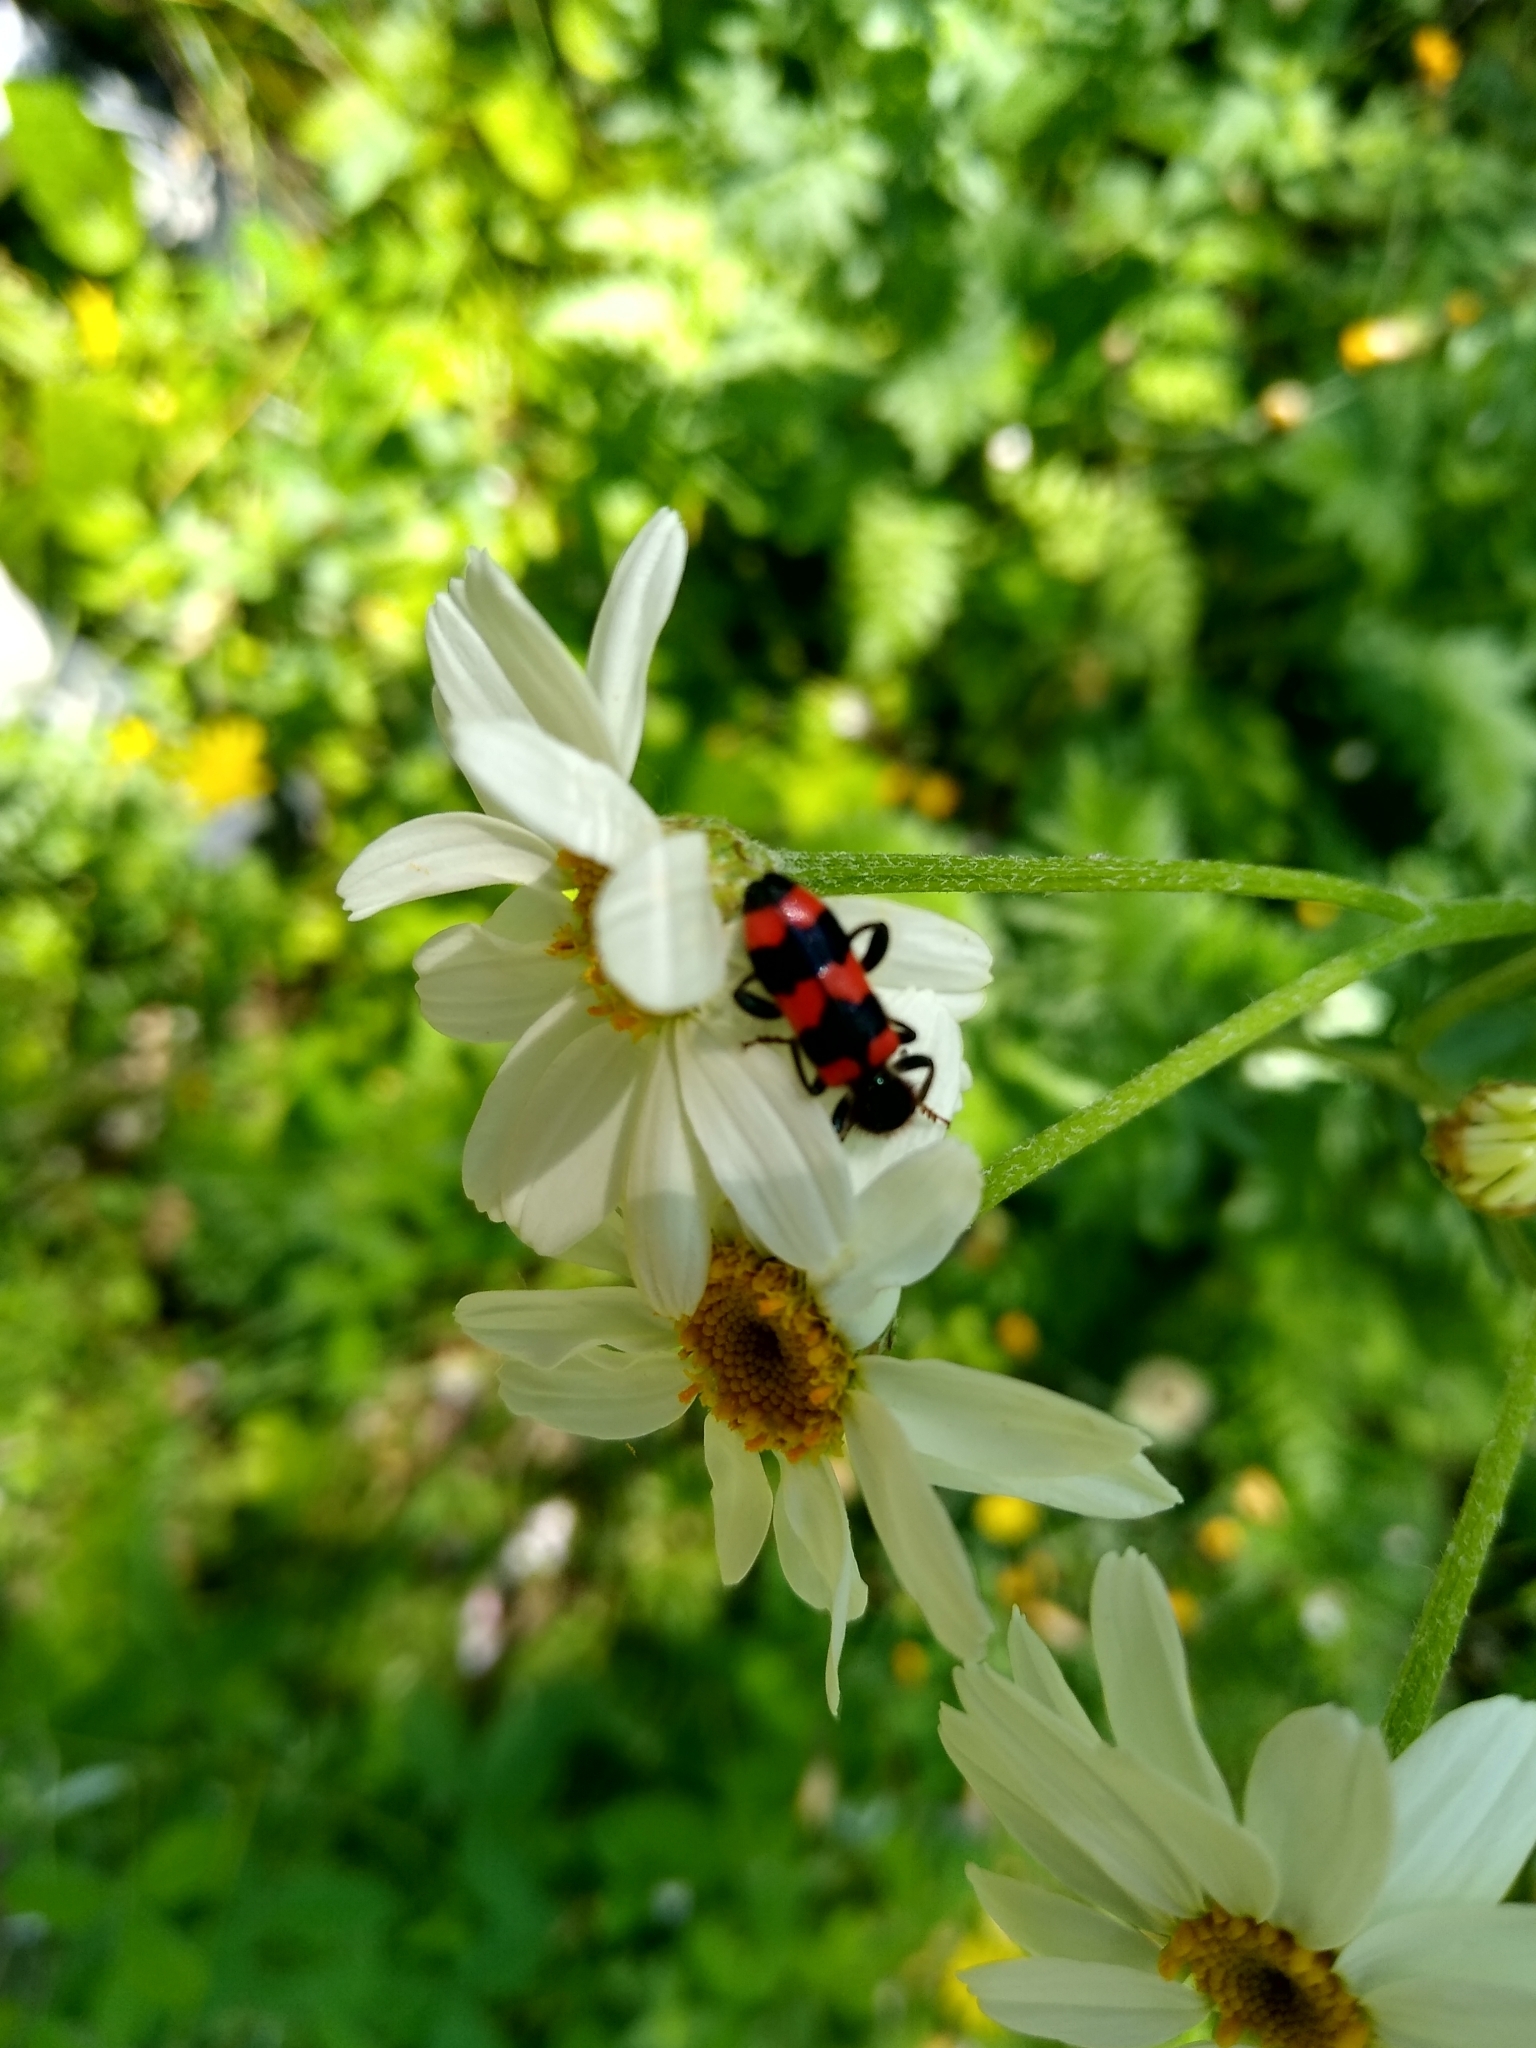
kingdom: Animalia
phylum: Arthropoda
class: Insecta
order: Coleoptera
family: Cleridae
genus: Trichodes
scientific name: Trichodes apiarius
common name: Bee-eating beetle
